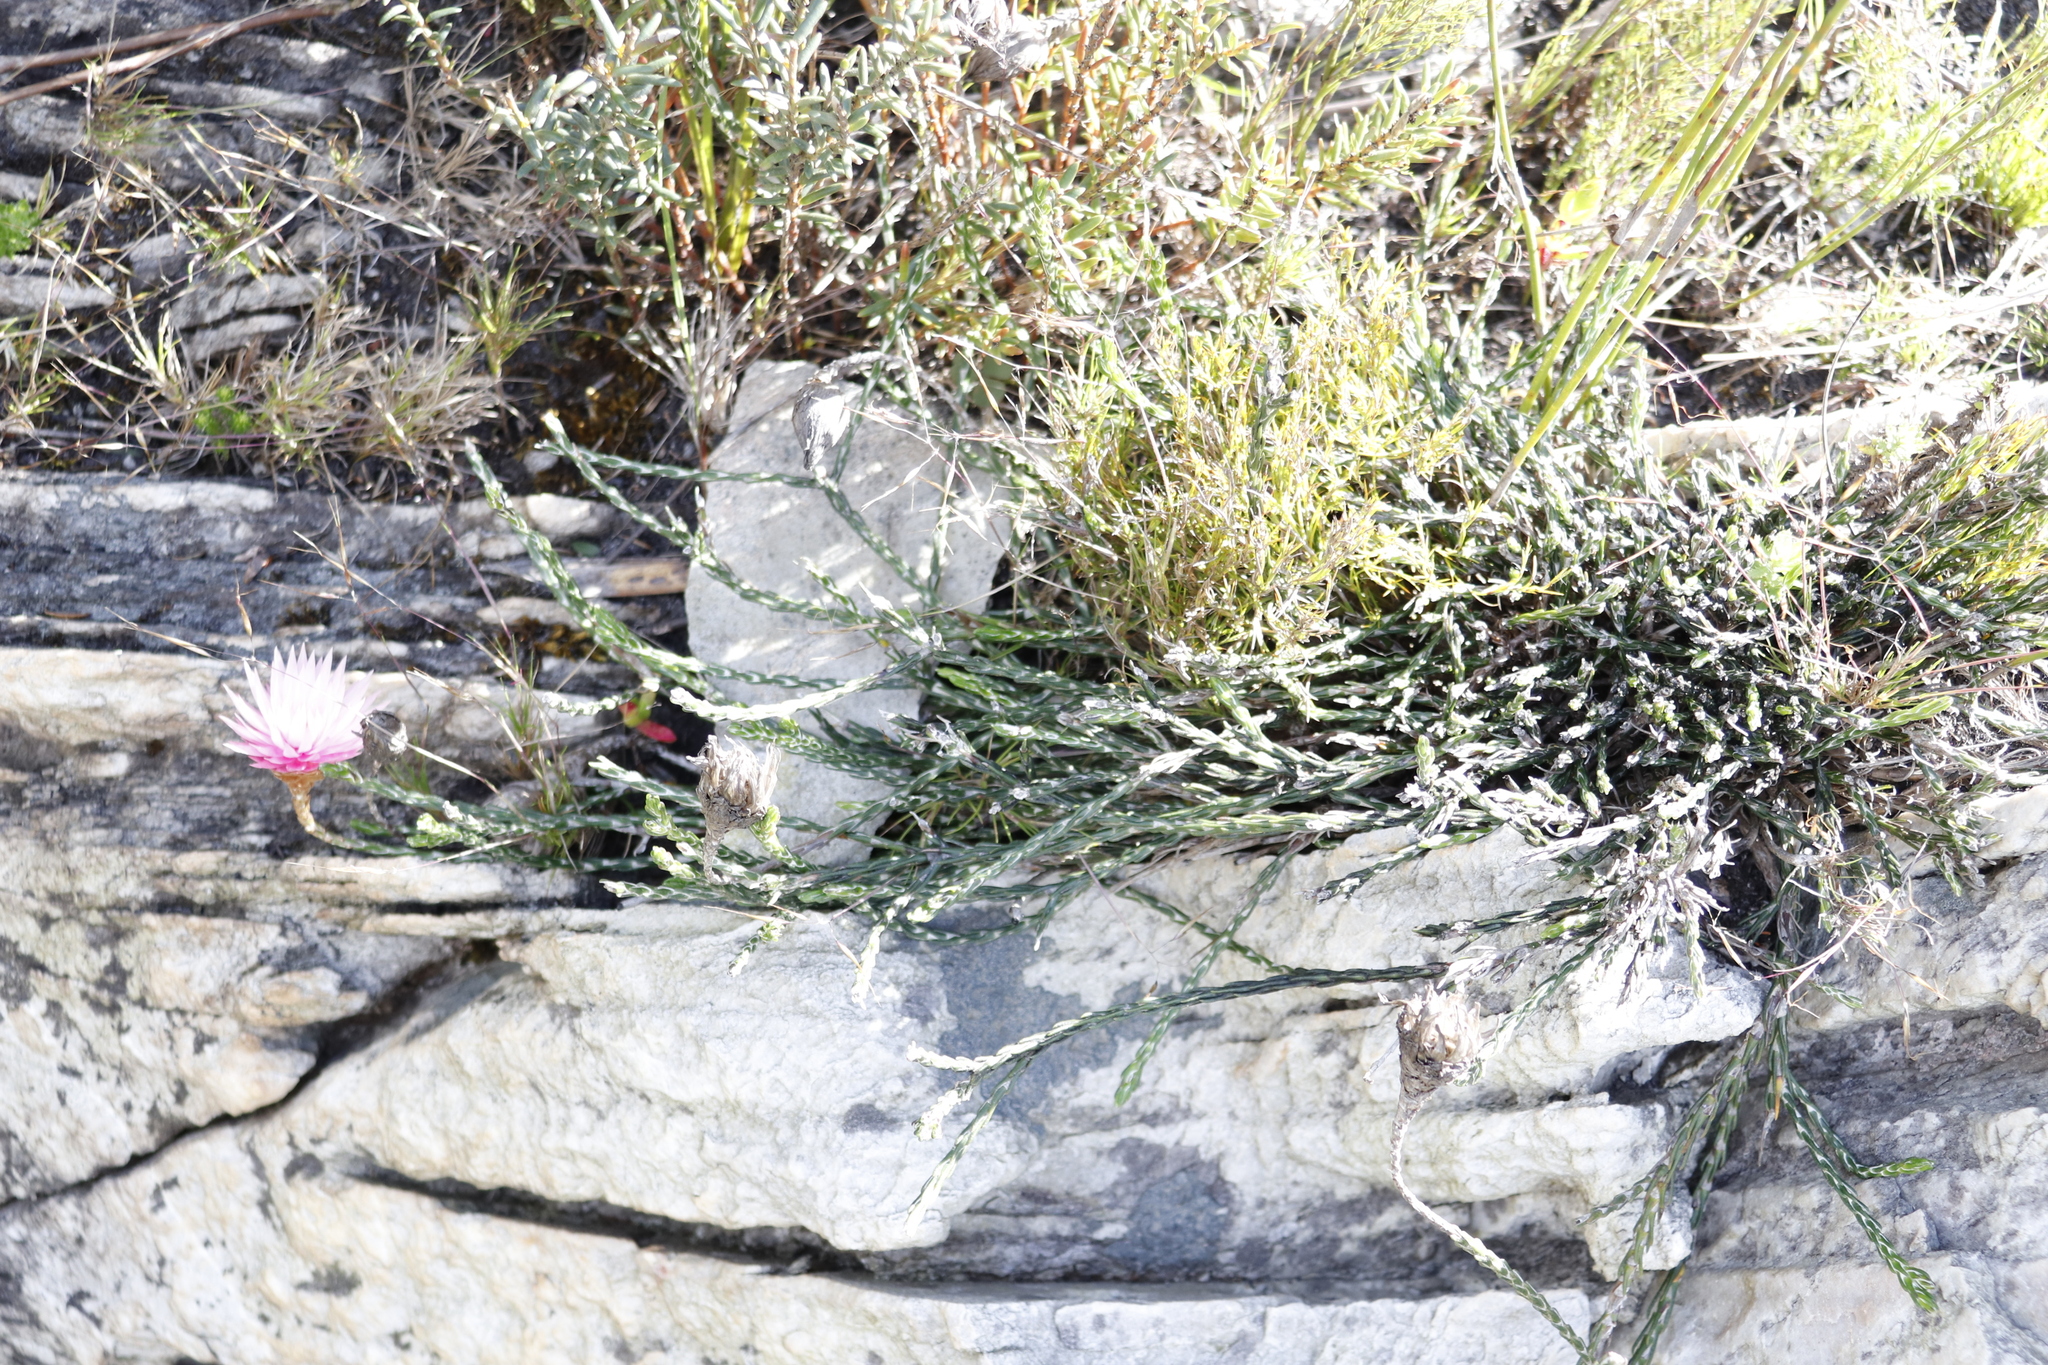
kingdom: Plantae
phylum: Tracheophyta
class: Magnoliopsida
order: Asterales
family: Asteraceae
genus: Edmondia
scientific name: Edmondia sesamoides
